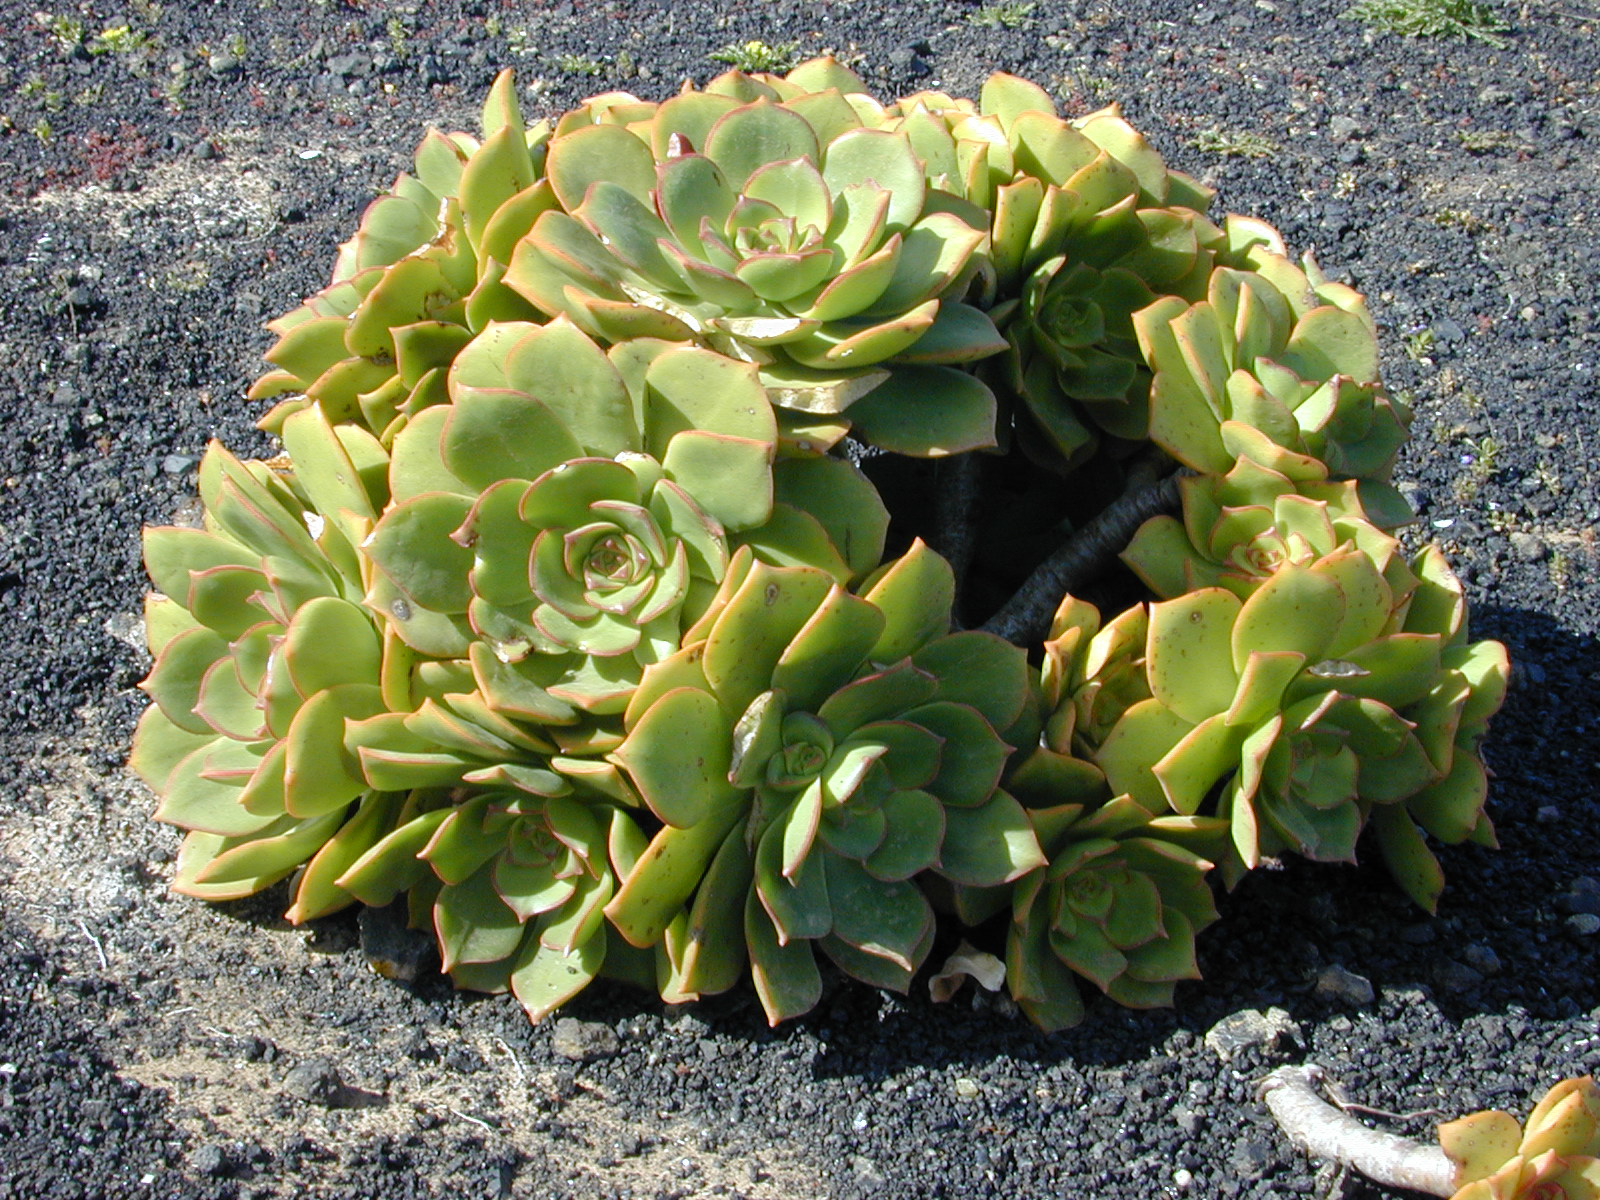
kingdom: Plantae
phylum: Tracheophyta
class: Magnoliopsida
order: Saxifragales
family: Crassulaceae
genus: Aeonium
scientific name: Aeonium lancerottense
